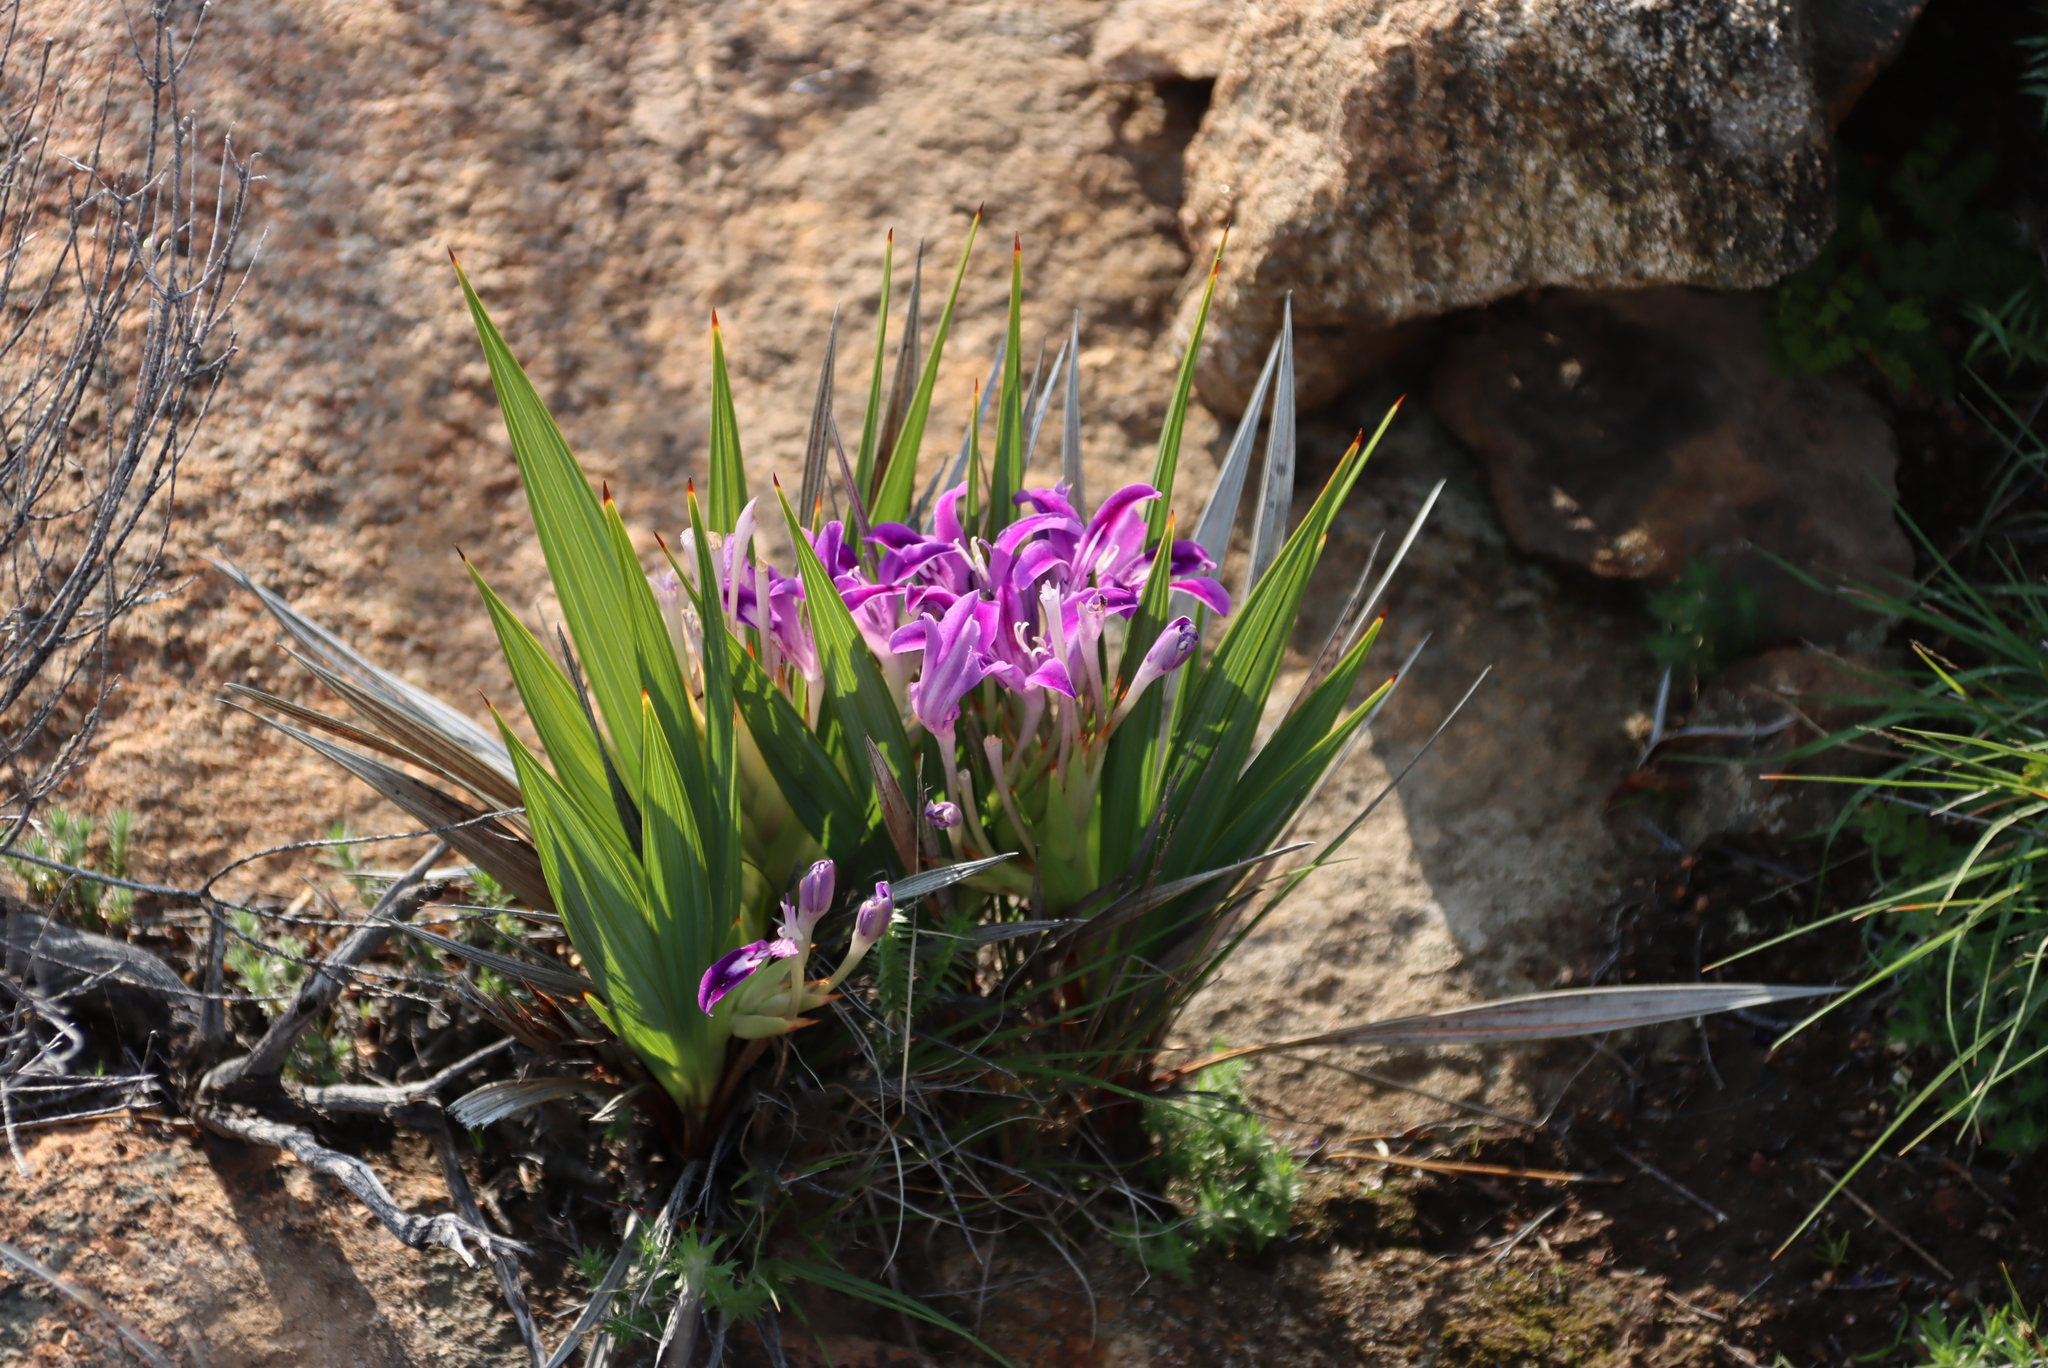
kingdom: Plantae
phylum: Tracheophyta
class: Liliopsida
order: Asparagales
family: Iridaceae
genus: Babiana
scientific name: Babiana dregei
